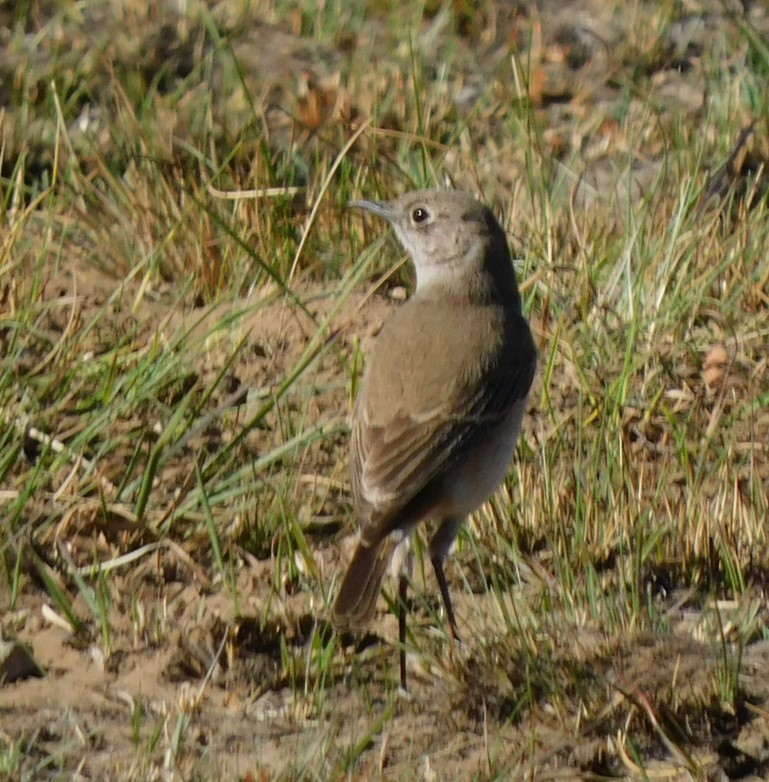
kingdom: Animalia
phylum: Chordata
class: Aves
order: Passeriformes
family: Muscicapidae
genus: Oenanthe
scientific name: Oenanthe familiaris
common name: Familiar chat
